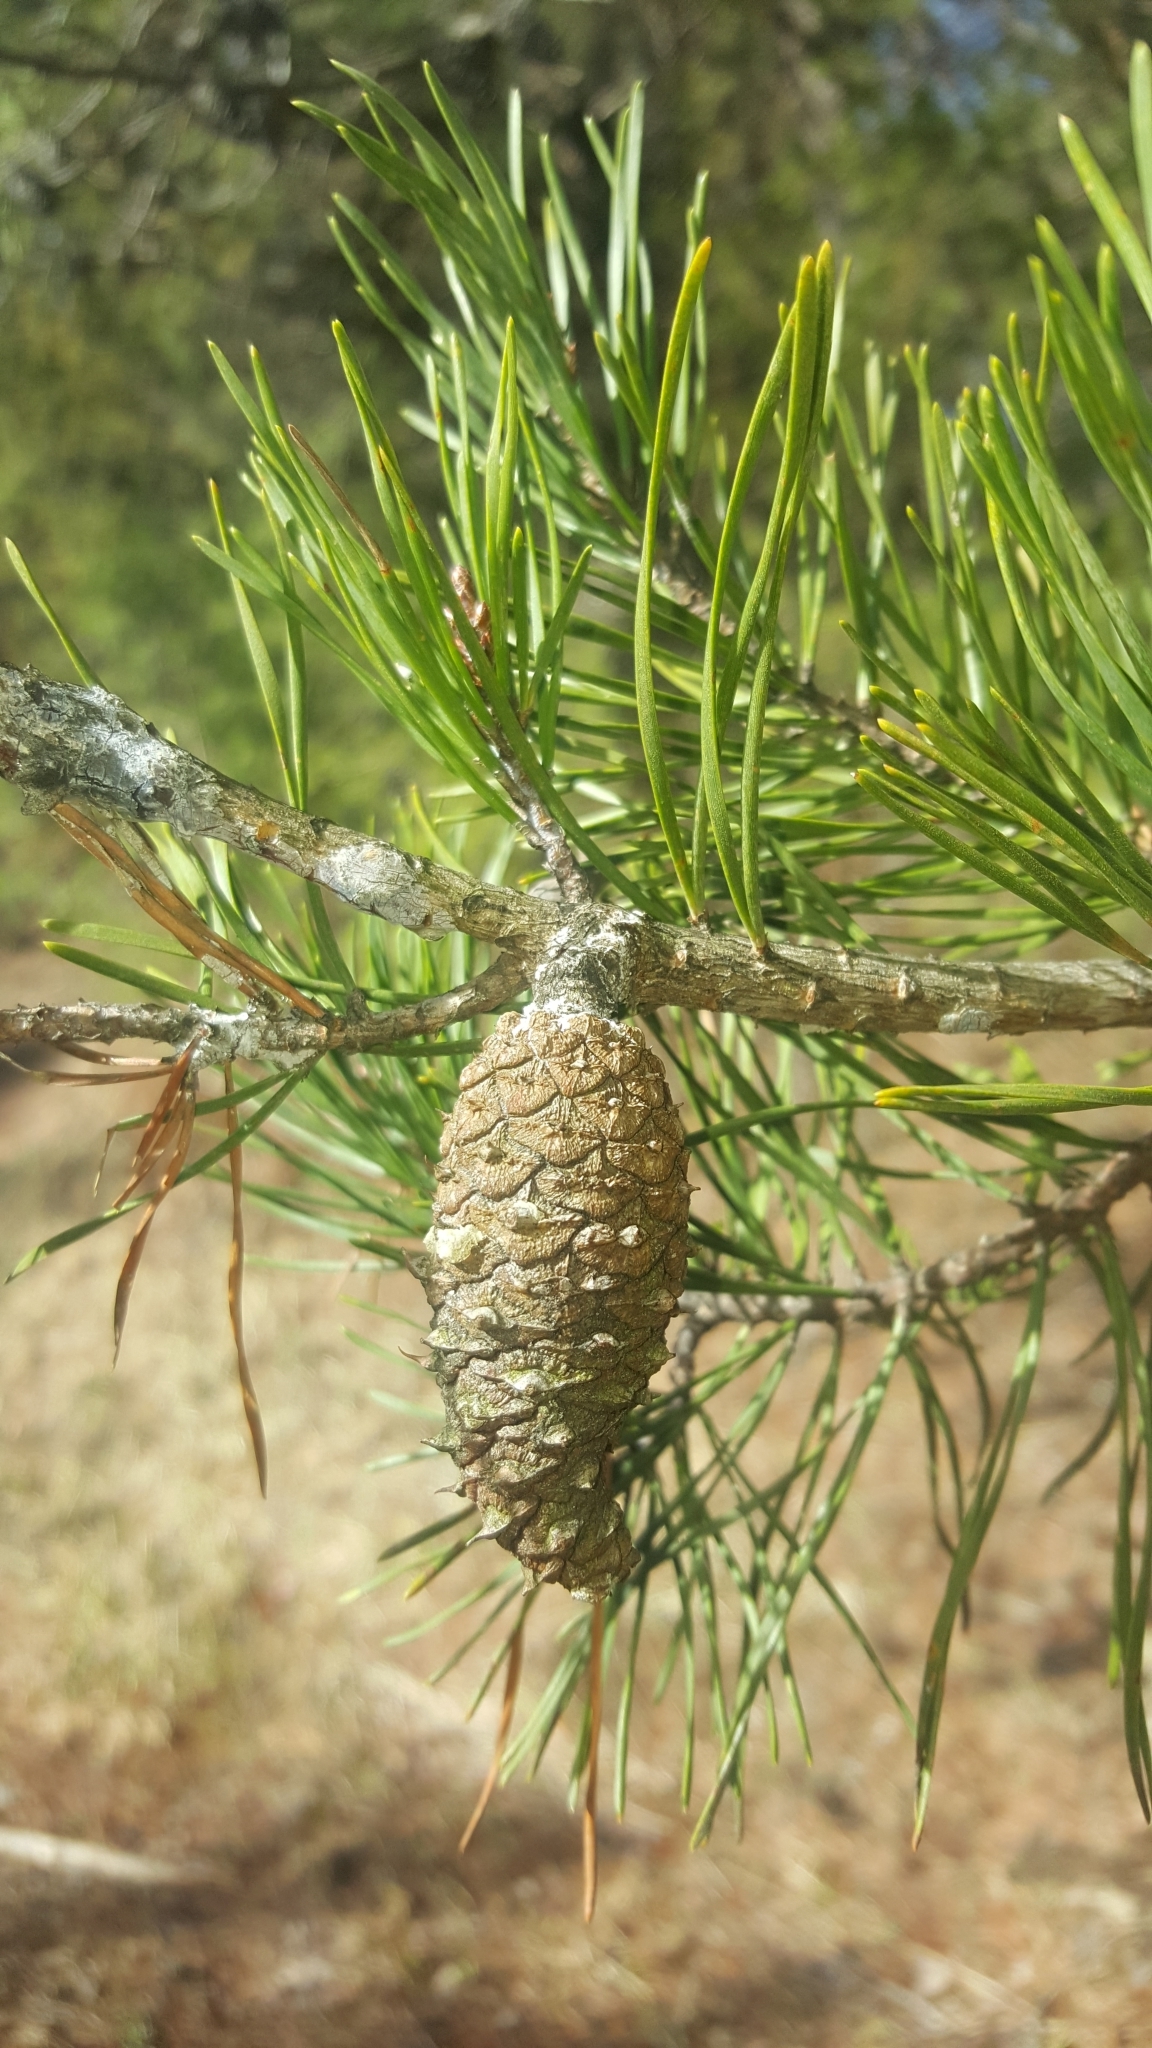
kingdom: Plantae
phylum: Tracheophyta
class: Pinopsida
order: Pinales
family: Pinaceae
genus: Pinus
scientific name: Pinus virginiana
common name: Scrub pine
